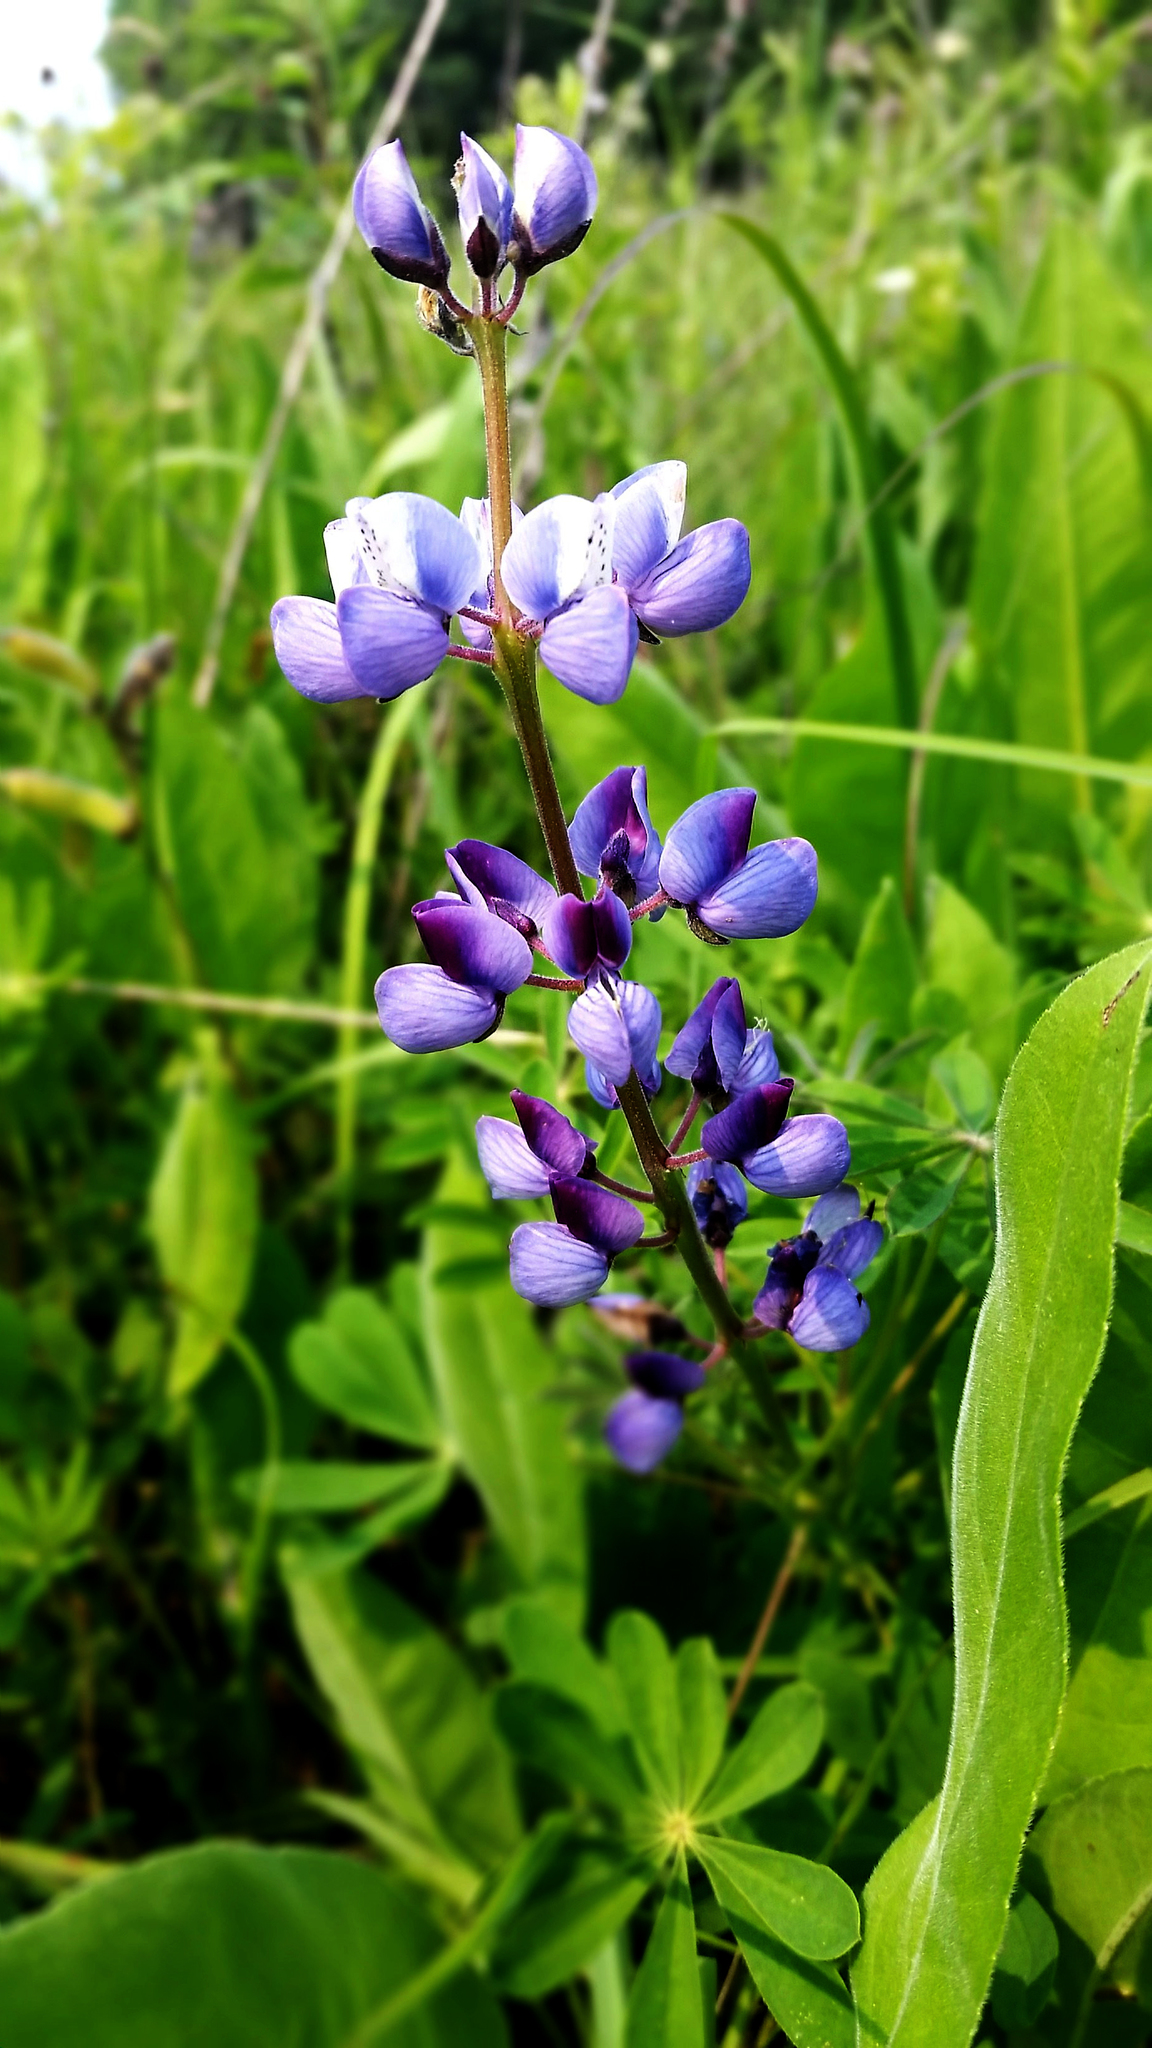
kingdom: Plantae
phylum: Tracheophyta
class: Magnoliopsida
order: Fabales
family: Fabaceae
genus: Lupinus
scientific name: Lupinus perennis
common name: Sundial lupine
